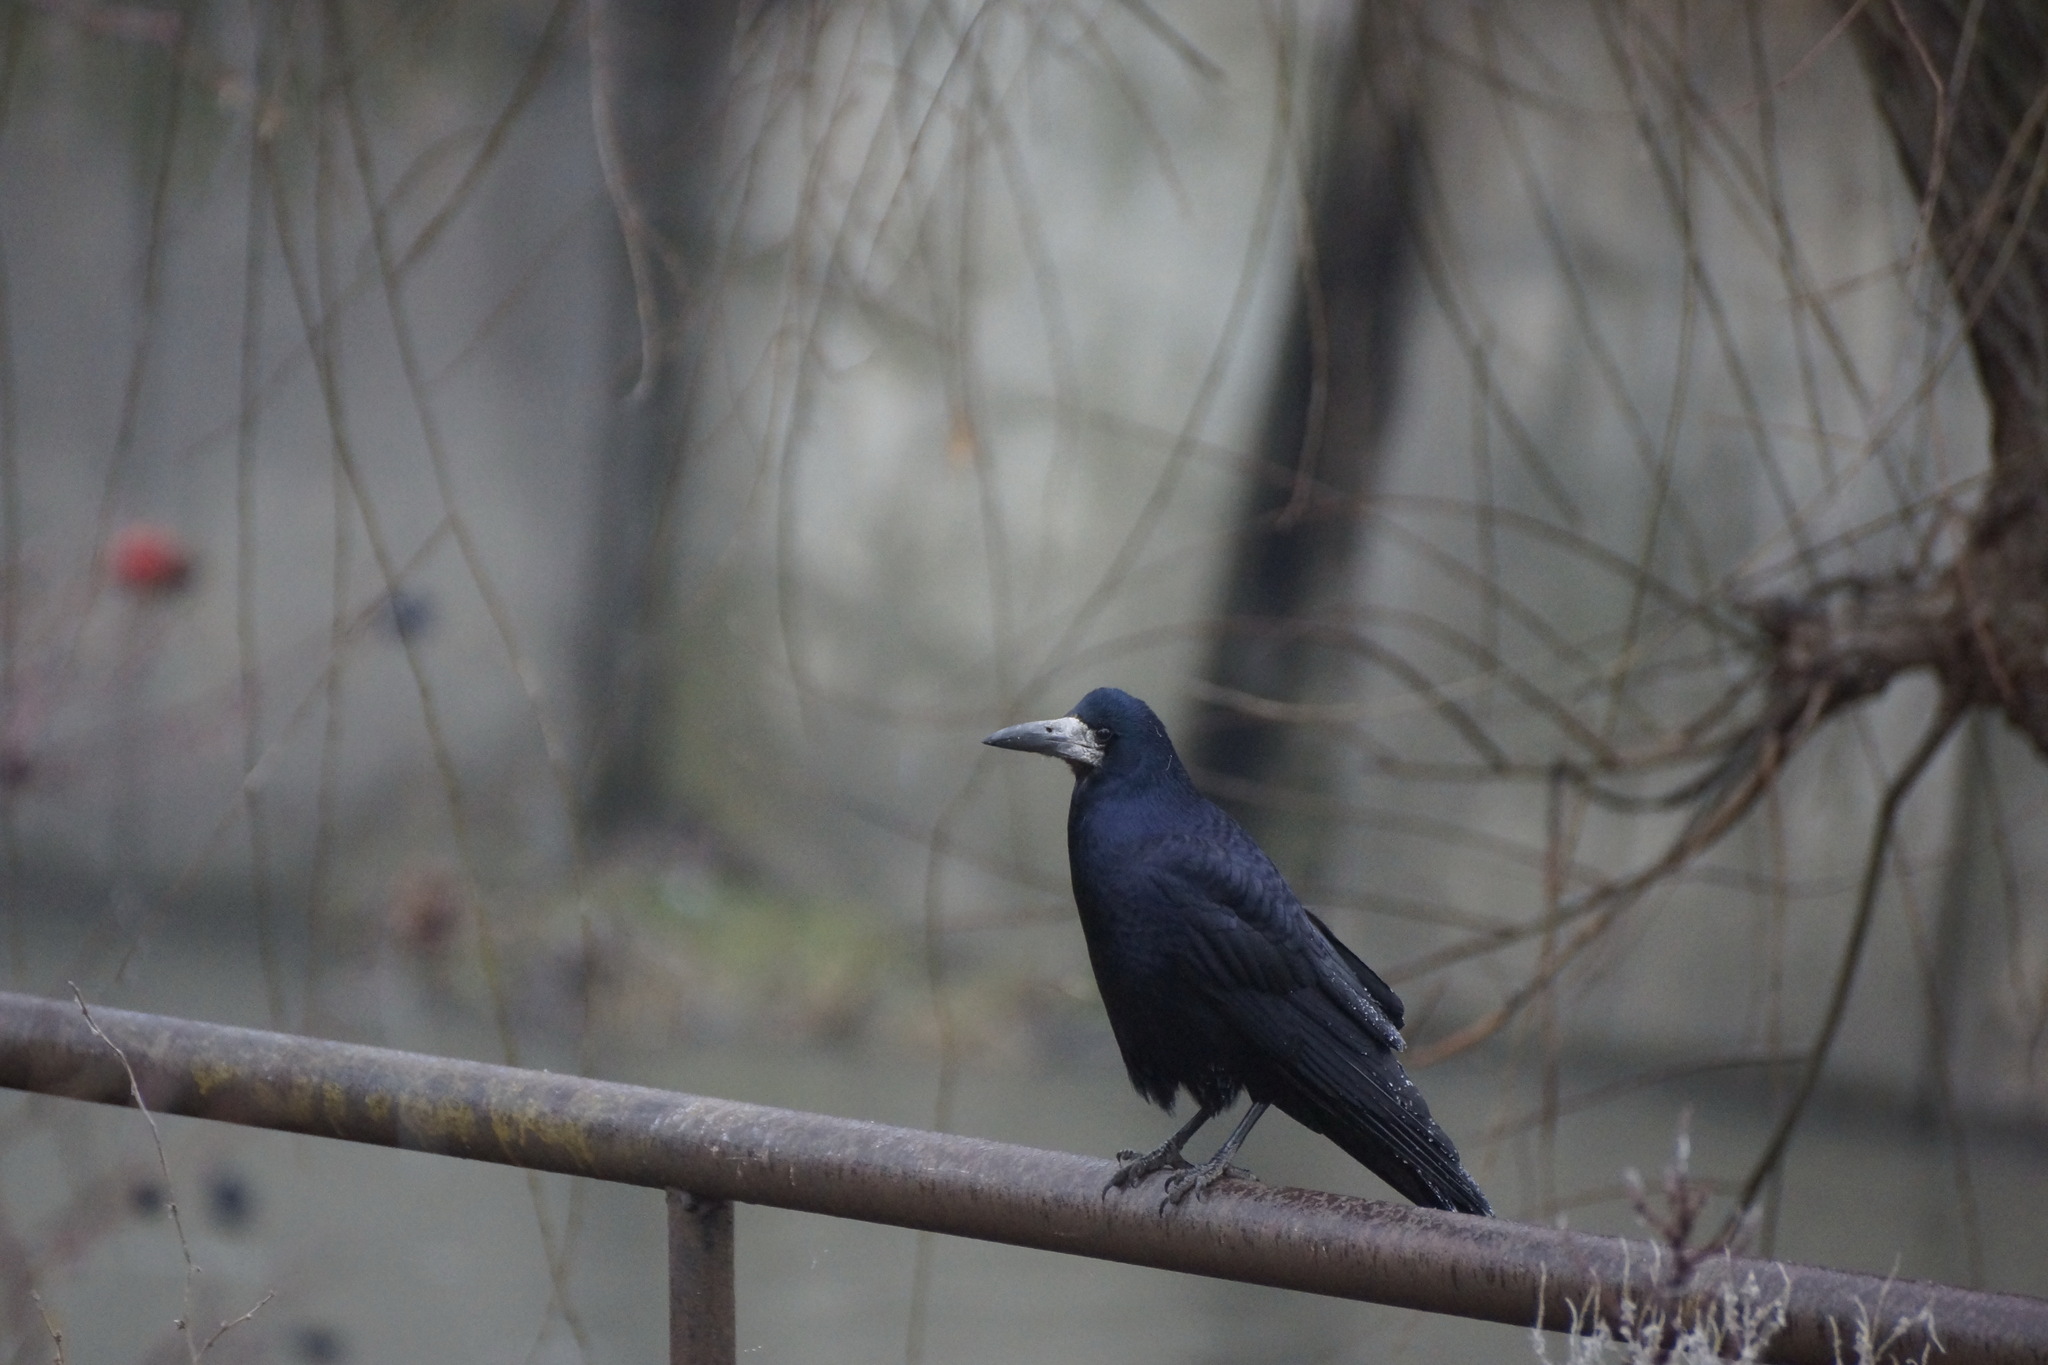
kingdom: Animalia
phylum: Chordata
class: Aves
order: Passeriformes
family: Corvidae
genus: Corvus
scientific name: Corvus frugilegus
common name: Rook
